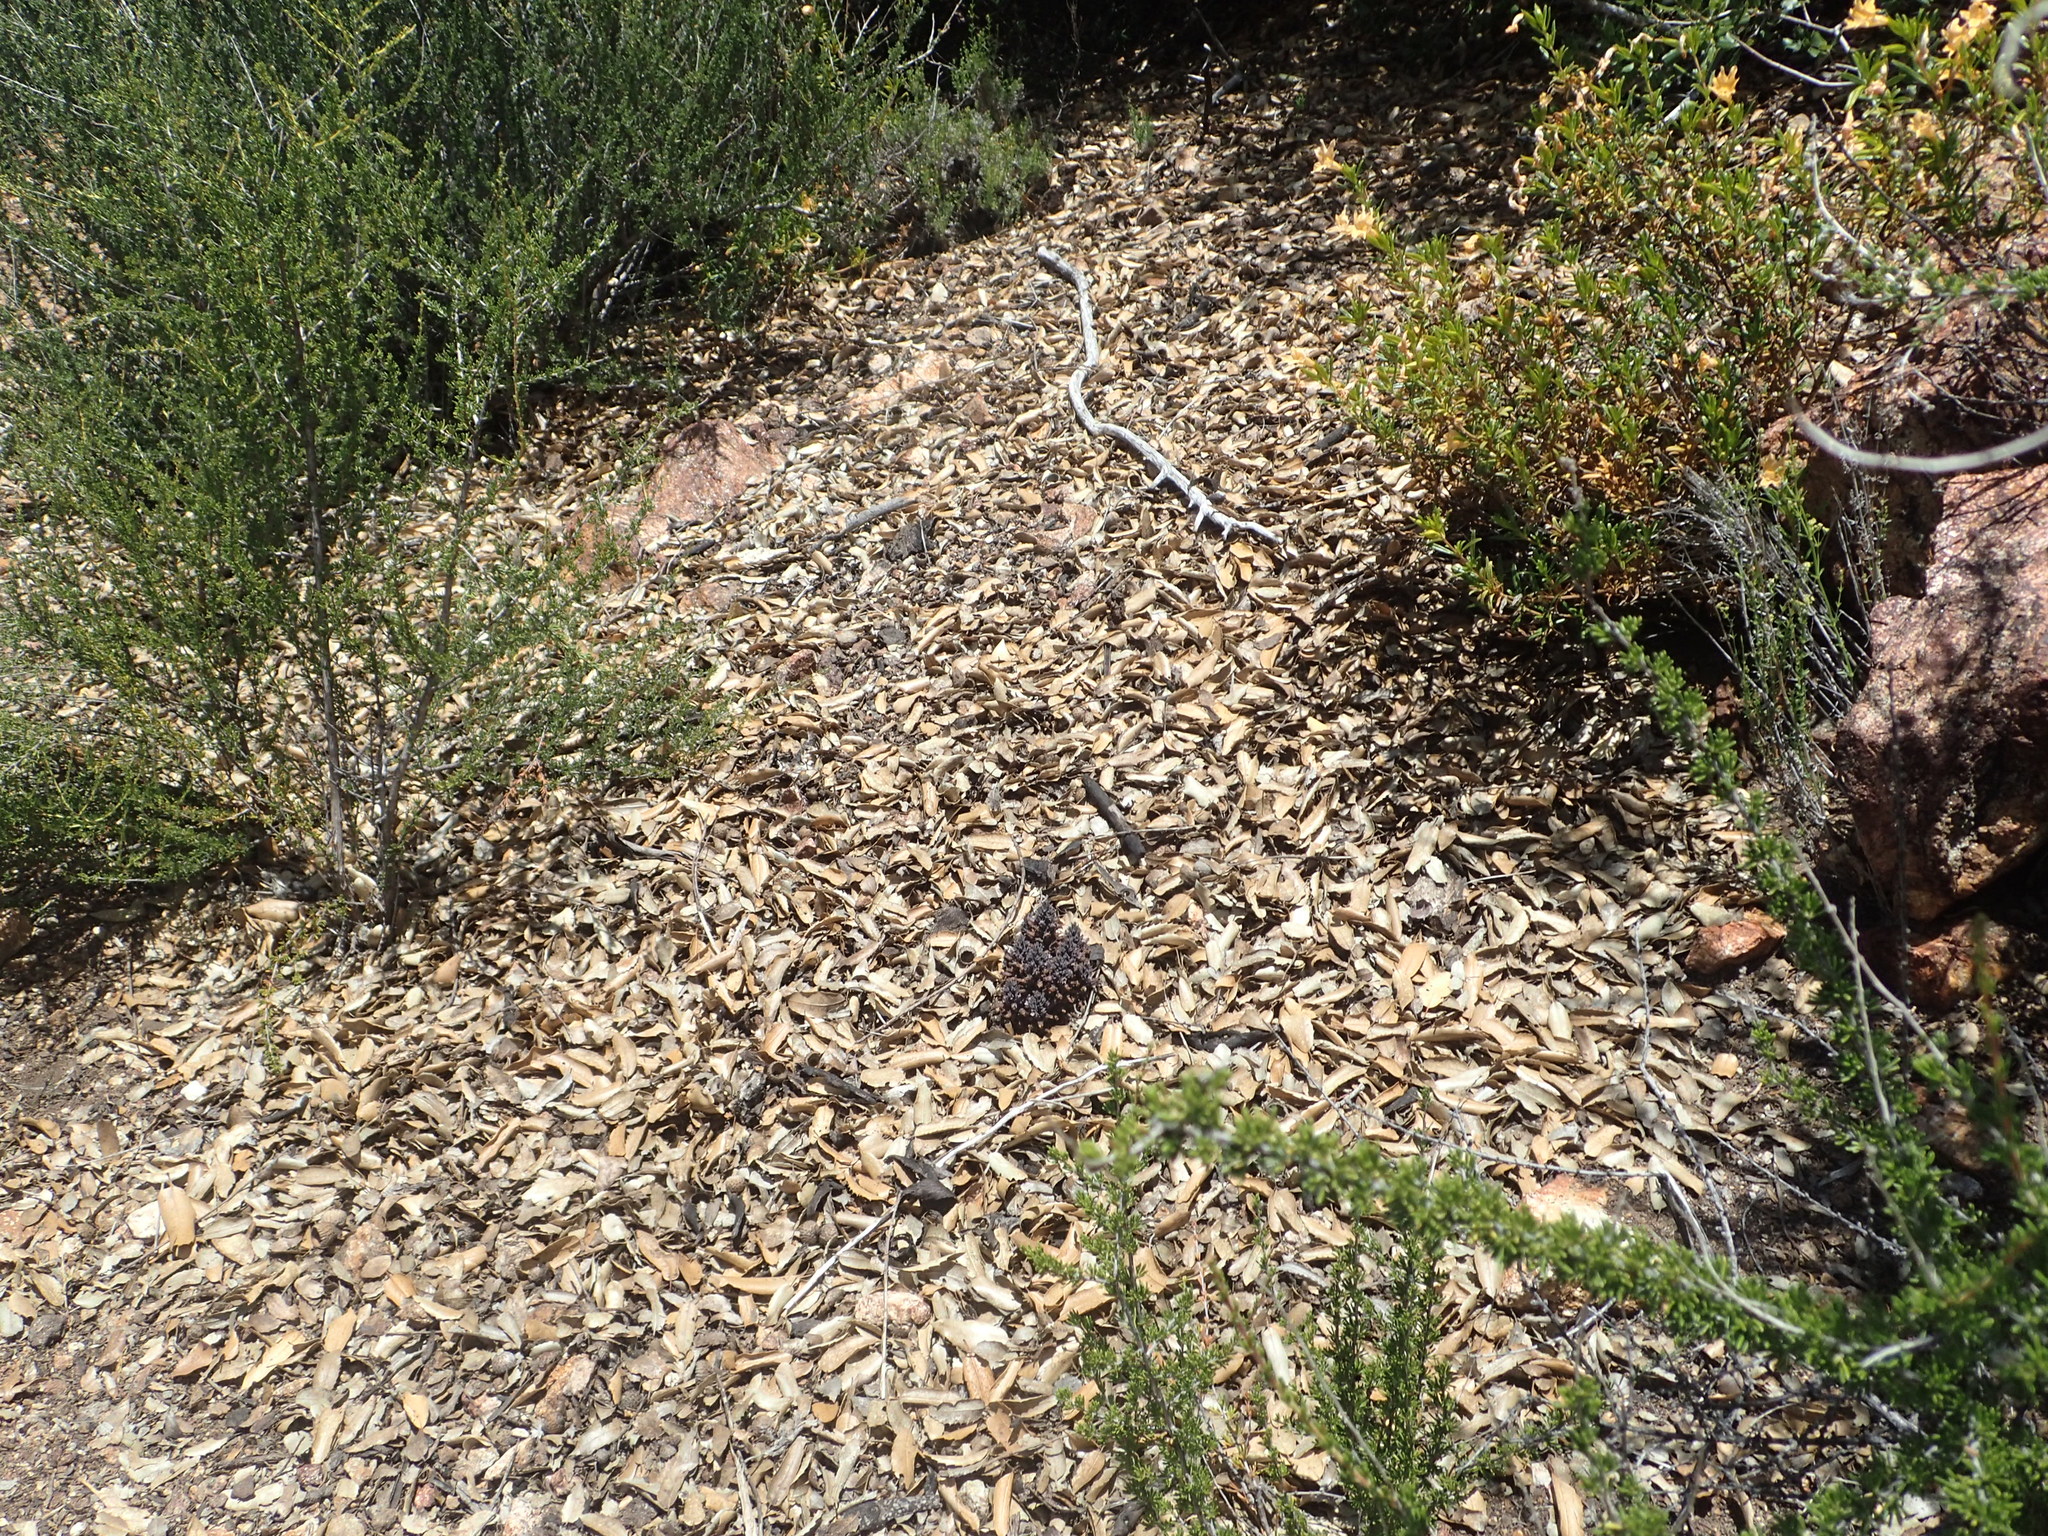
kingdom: Plantae
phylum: Tracheophyta
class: Magnoliopsida
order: Lamiales
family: Orobanchaceae
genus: Aphyllon
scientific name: Aphyllon tuberosum
